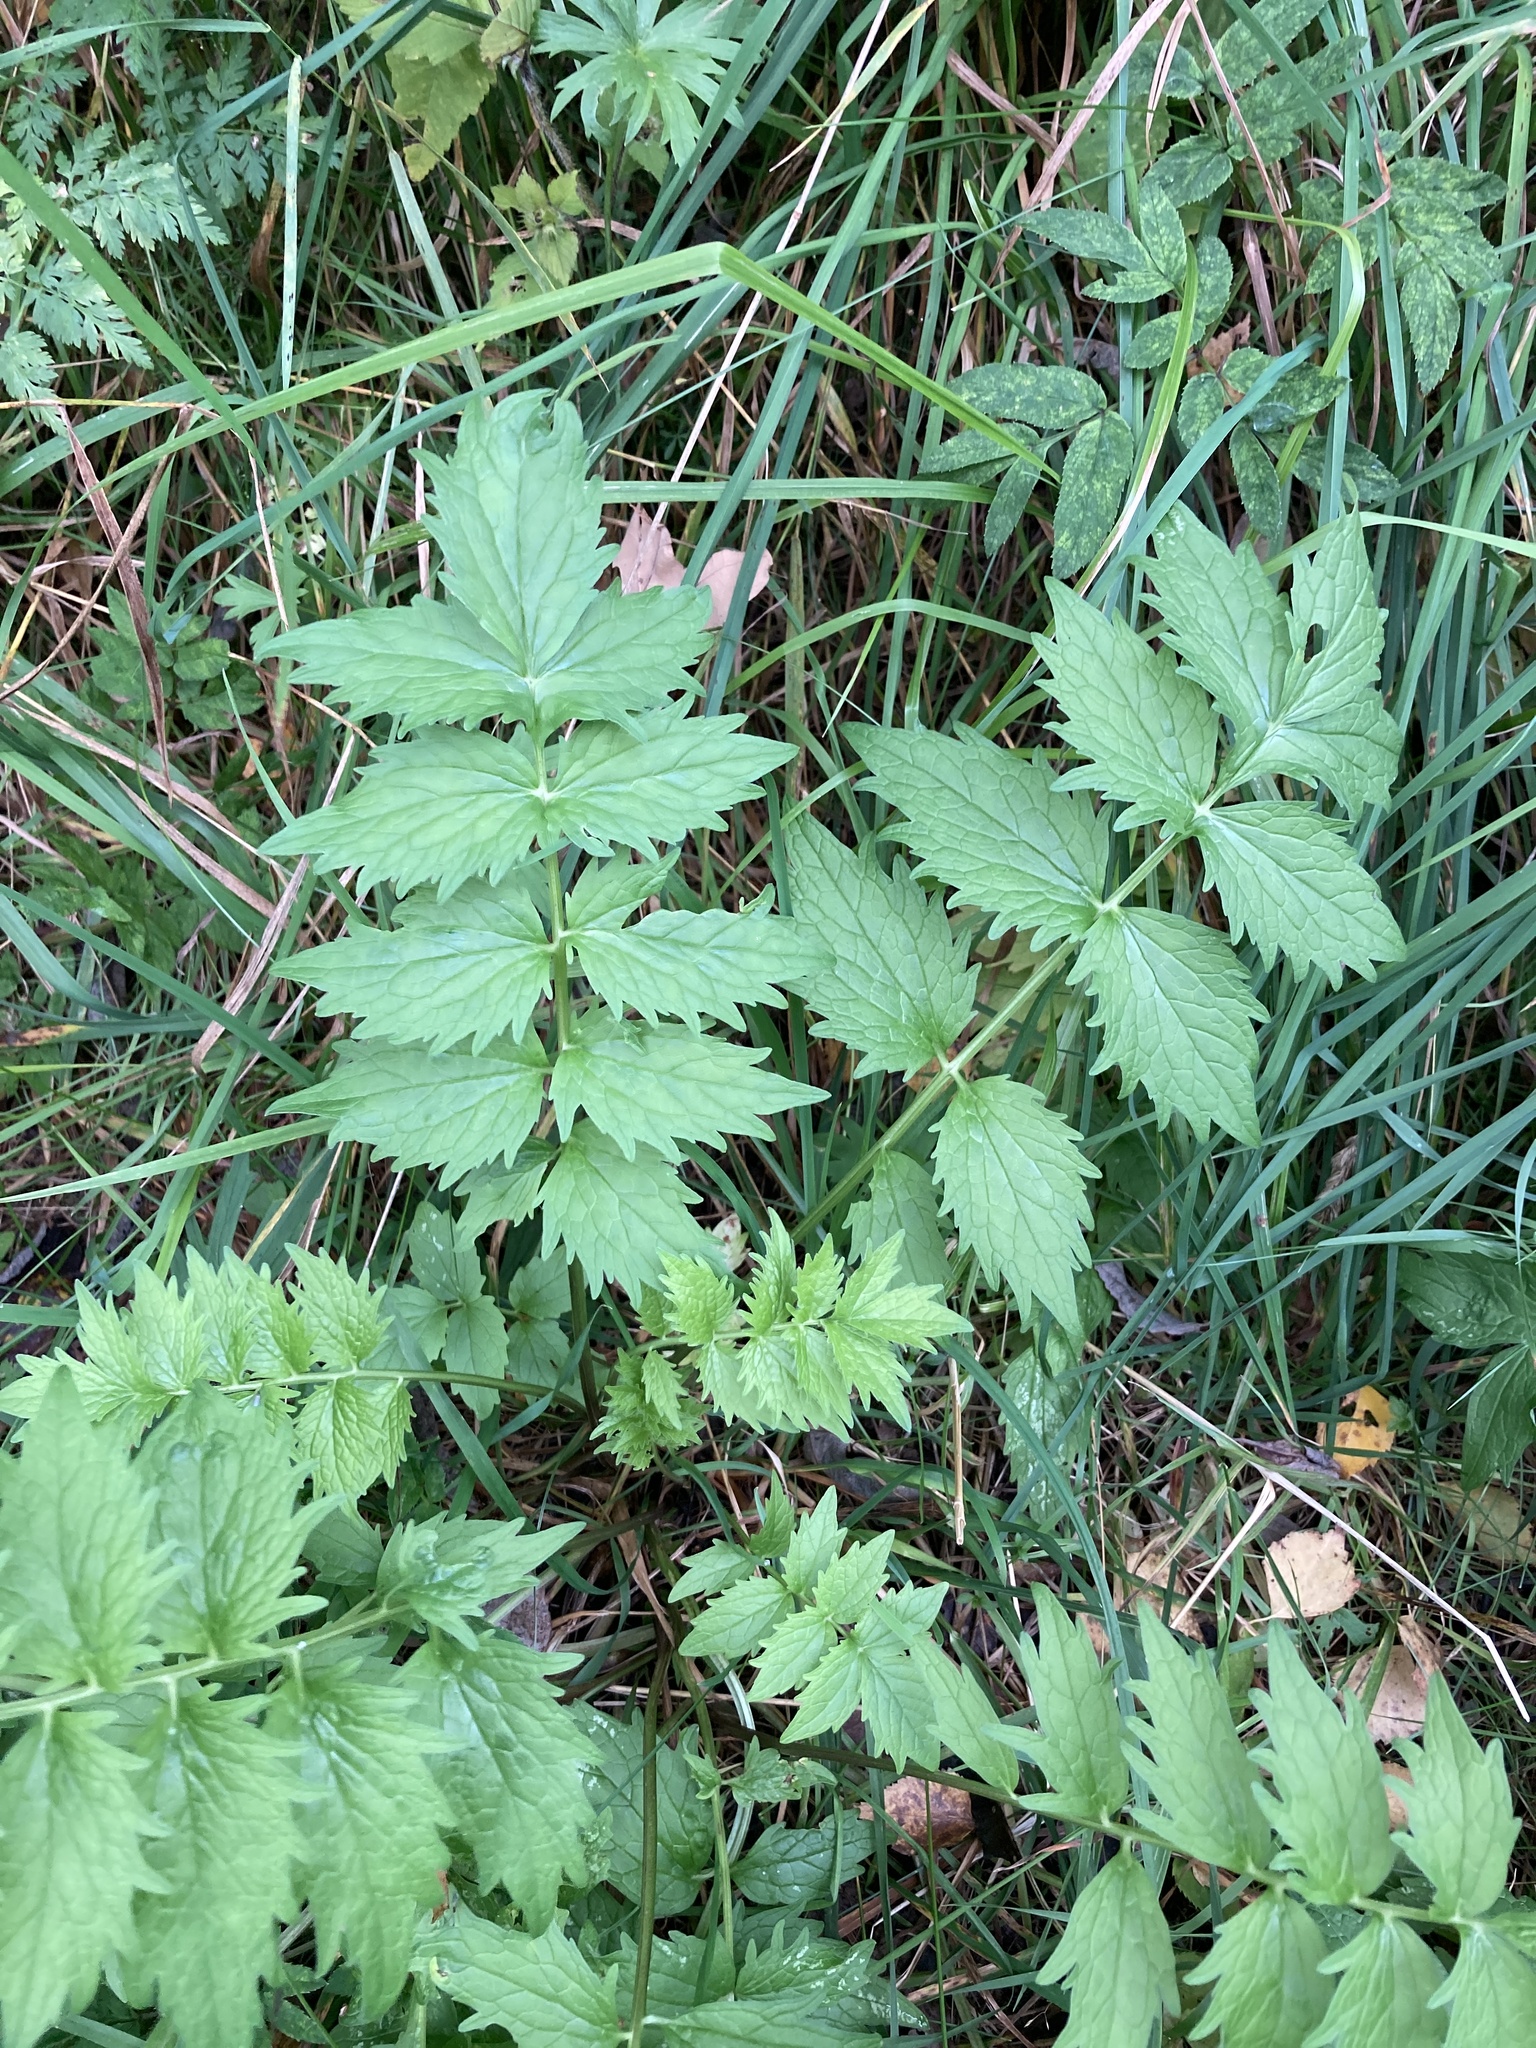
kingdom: Plantae
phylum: Tracheophyta
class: Magnoliopsida
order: Dipsacales
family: Caprifoliaceae
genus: Valeriana
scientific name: Valeriana officinalis
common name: Common valerian
